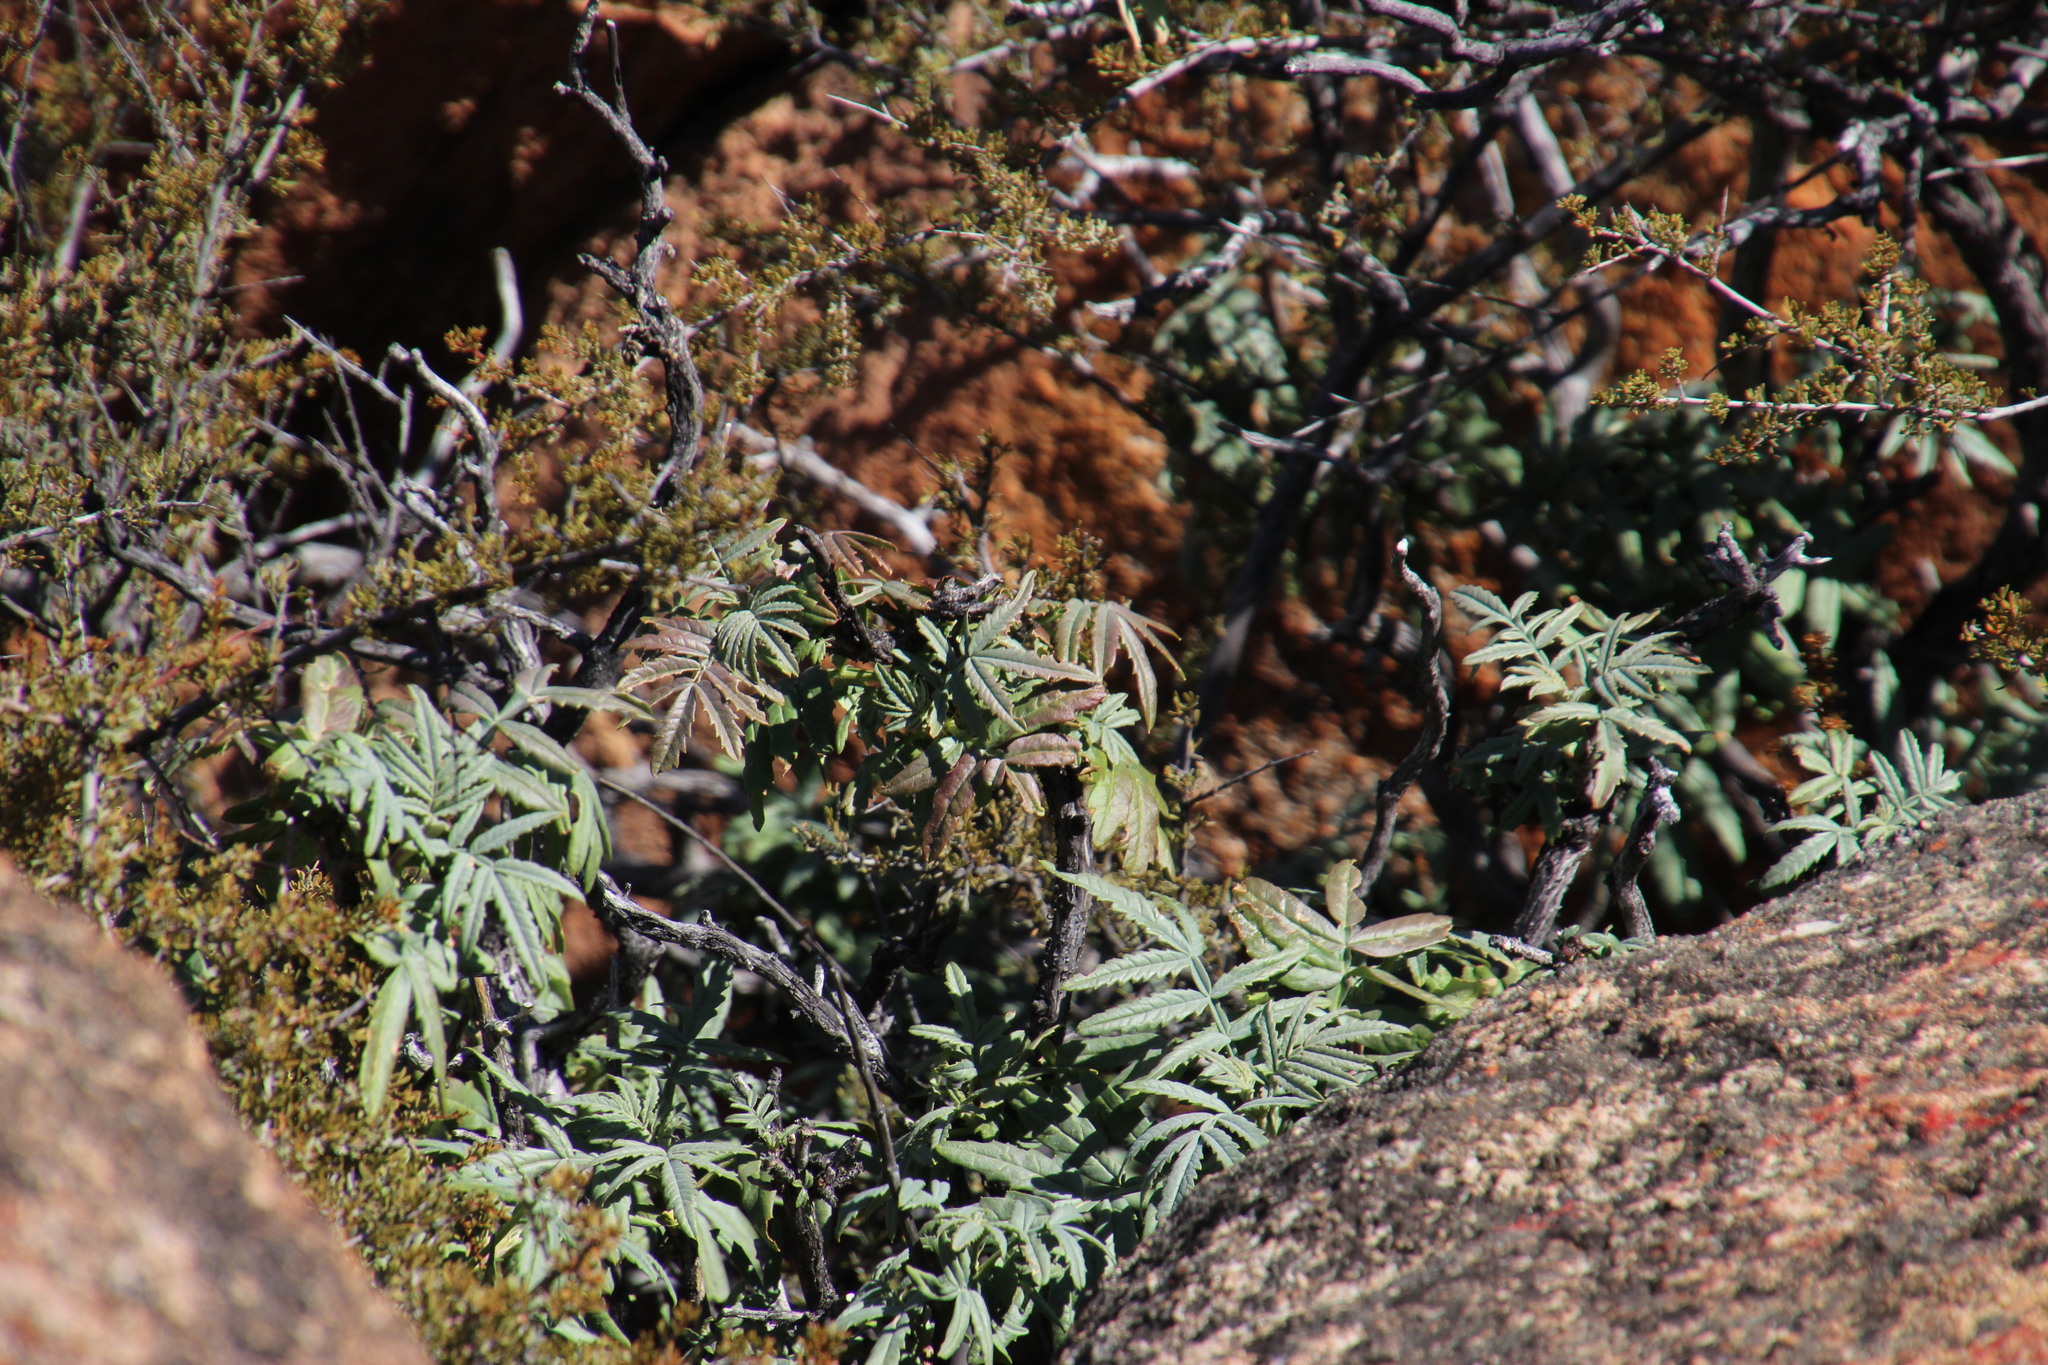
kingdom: Plantae
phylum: Tracheophyta
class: Magnoliopsida
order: Geraniales
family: Melianthaceae
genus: Melianthus
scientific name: Melianthus pectinatus
